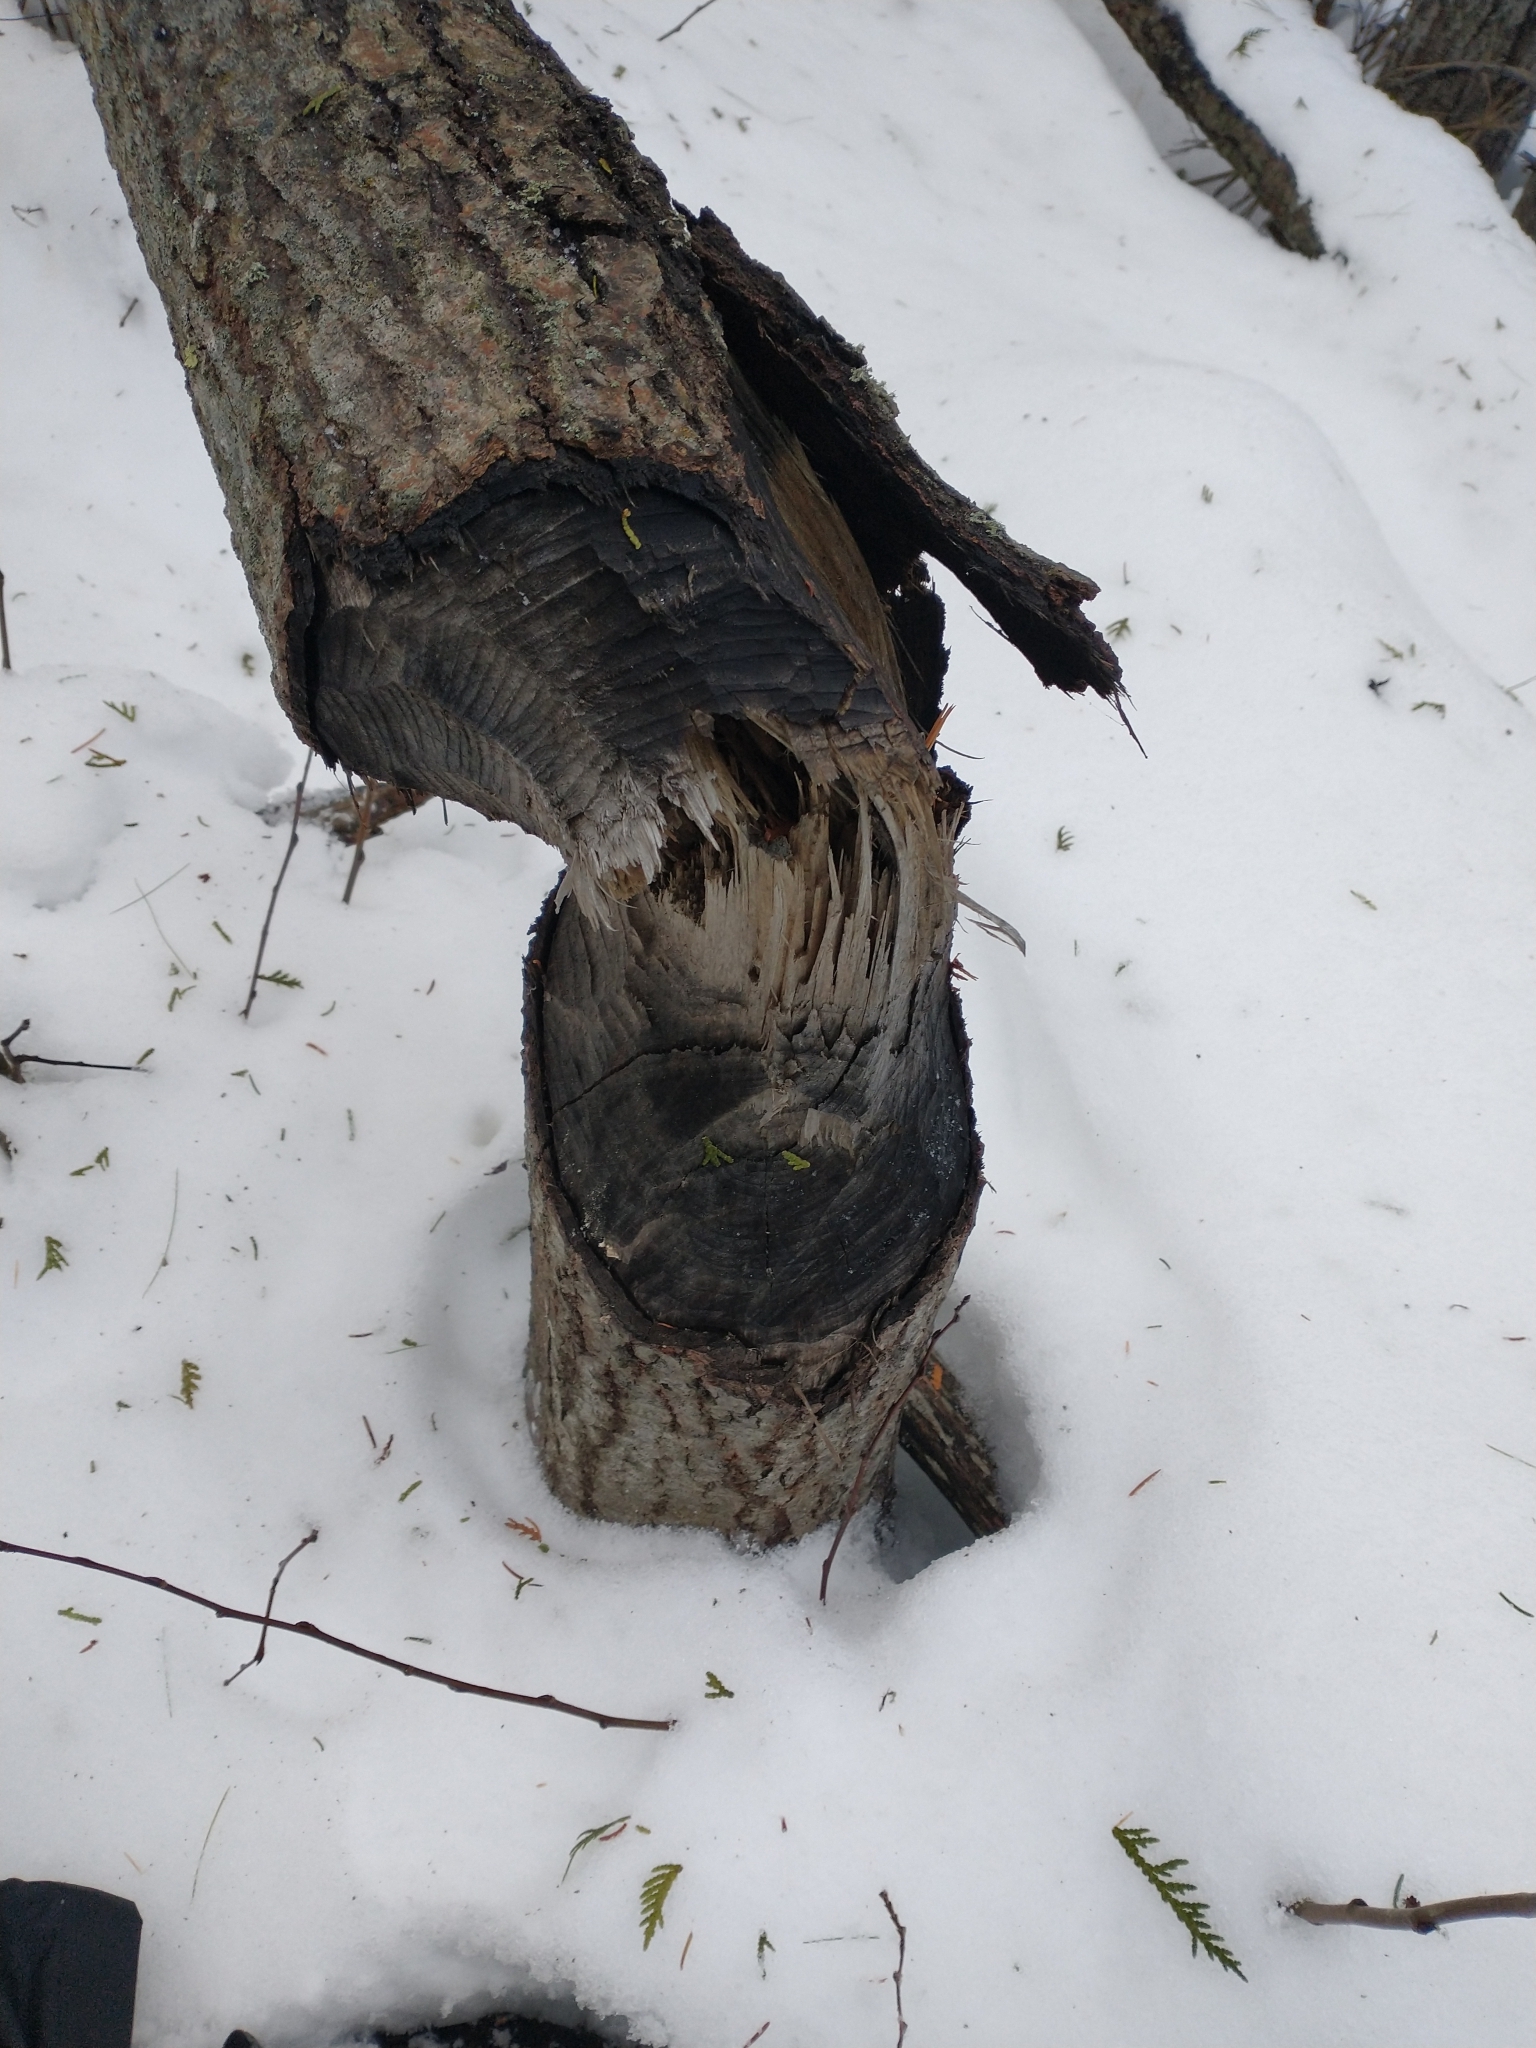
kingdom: Animalia
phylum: Chordata
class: Mammalia
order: Rodentia
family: Castoridae
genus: Castor
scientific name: Castor canadensis
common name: American beaver
